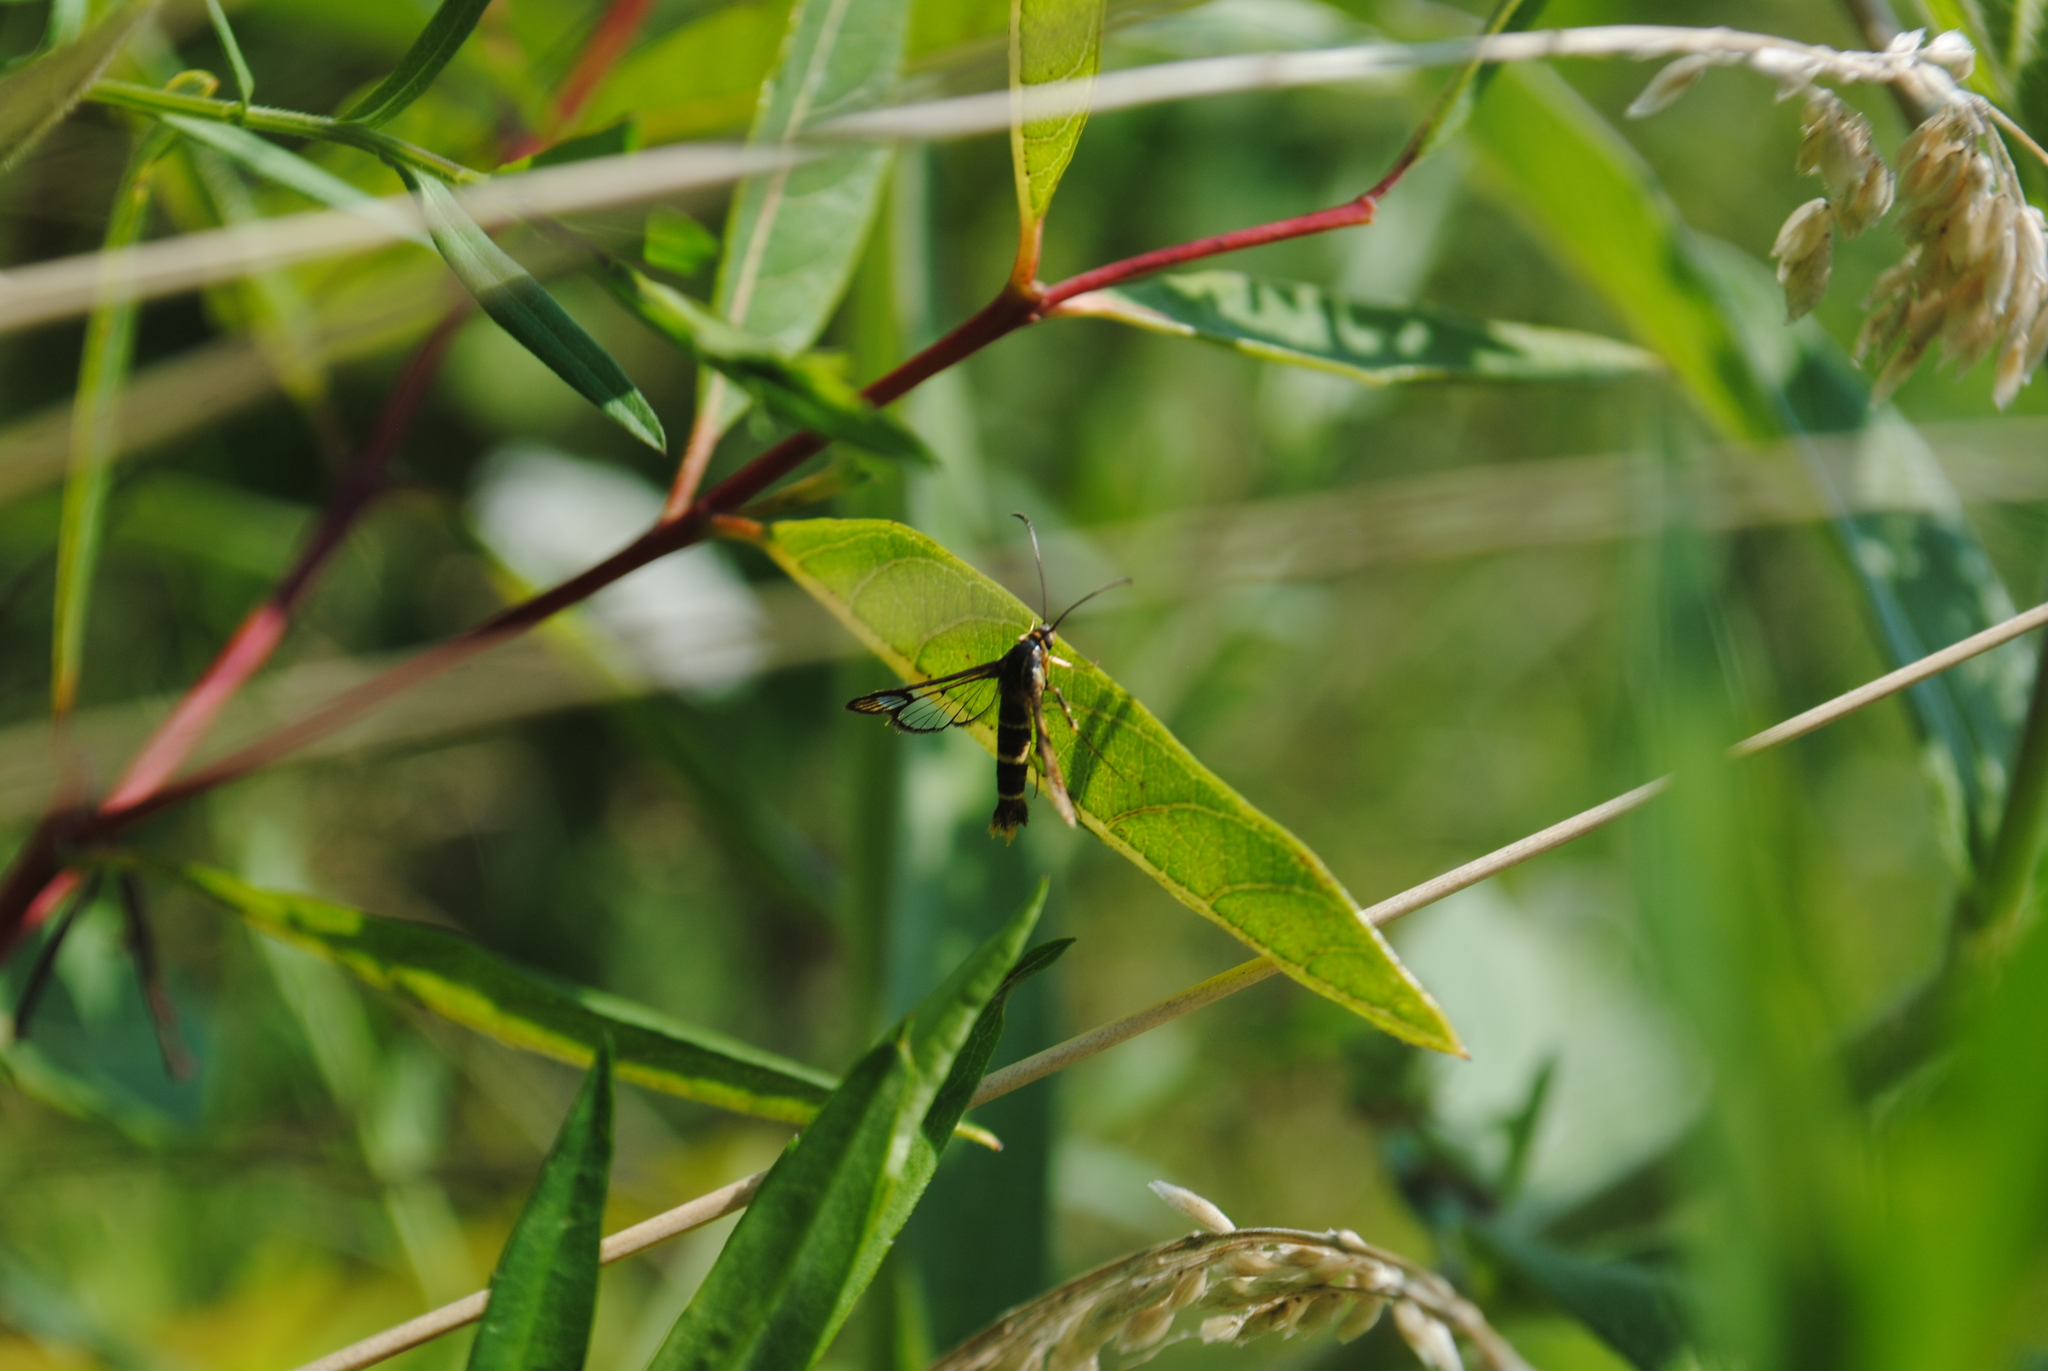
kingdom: Animalia
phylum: Arthropoda
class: Insecta
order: Lepidoptera
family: Sesiidae
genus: Carmenta
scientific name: Carmenta bassiformis
